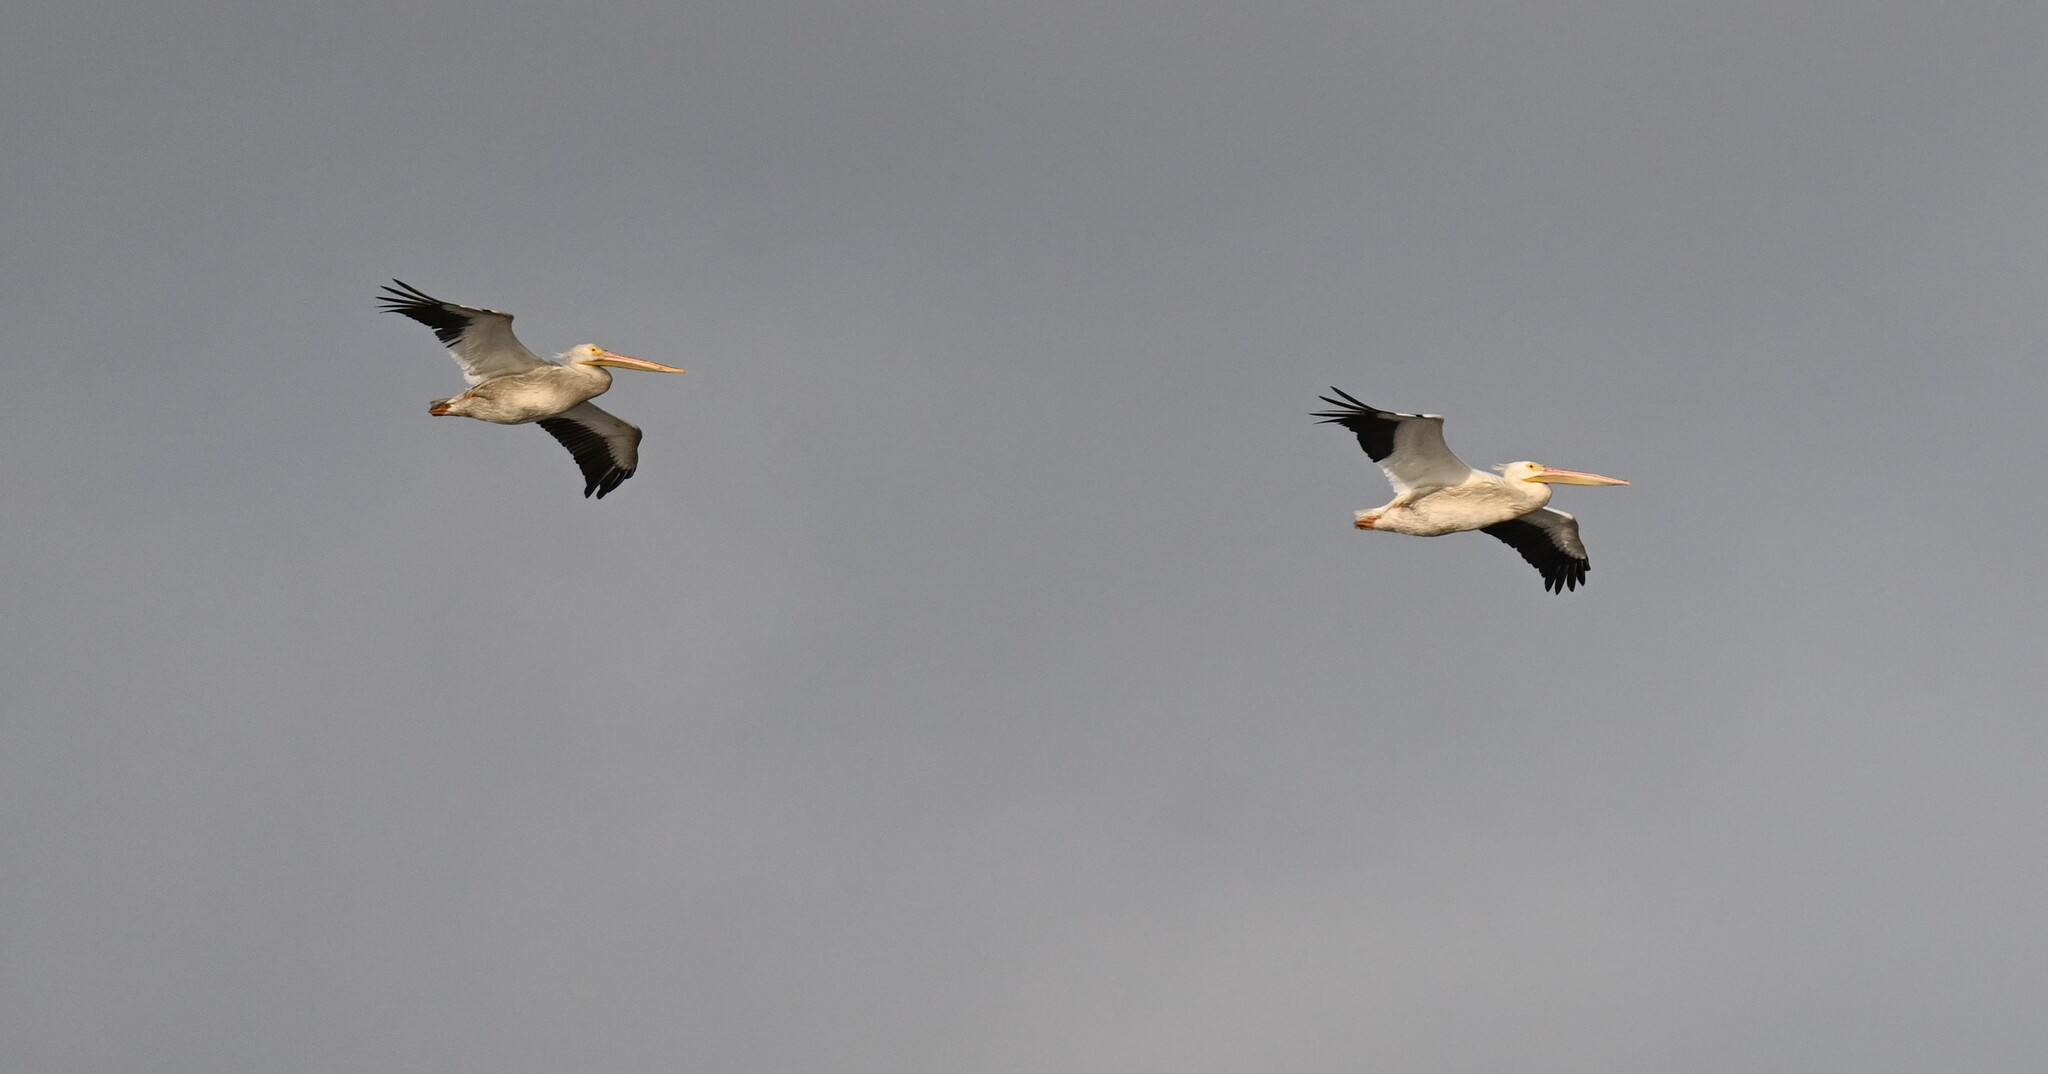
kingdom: Animalia
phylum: Chordata
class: Aves
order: Pelecaniformes
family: Pelecanidae
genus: Pelecanus
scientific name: Pelecanus erythrorhynchos
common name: American white pelican
